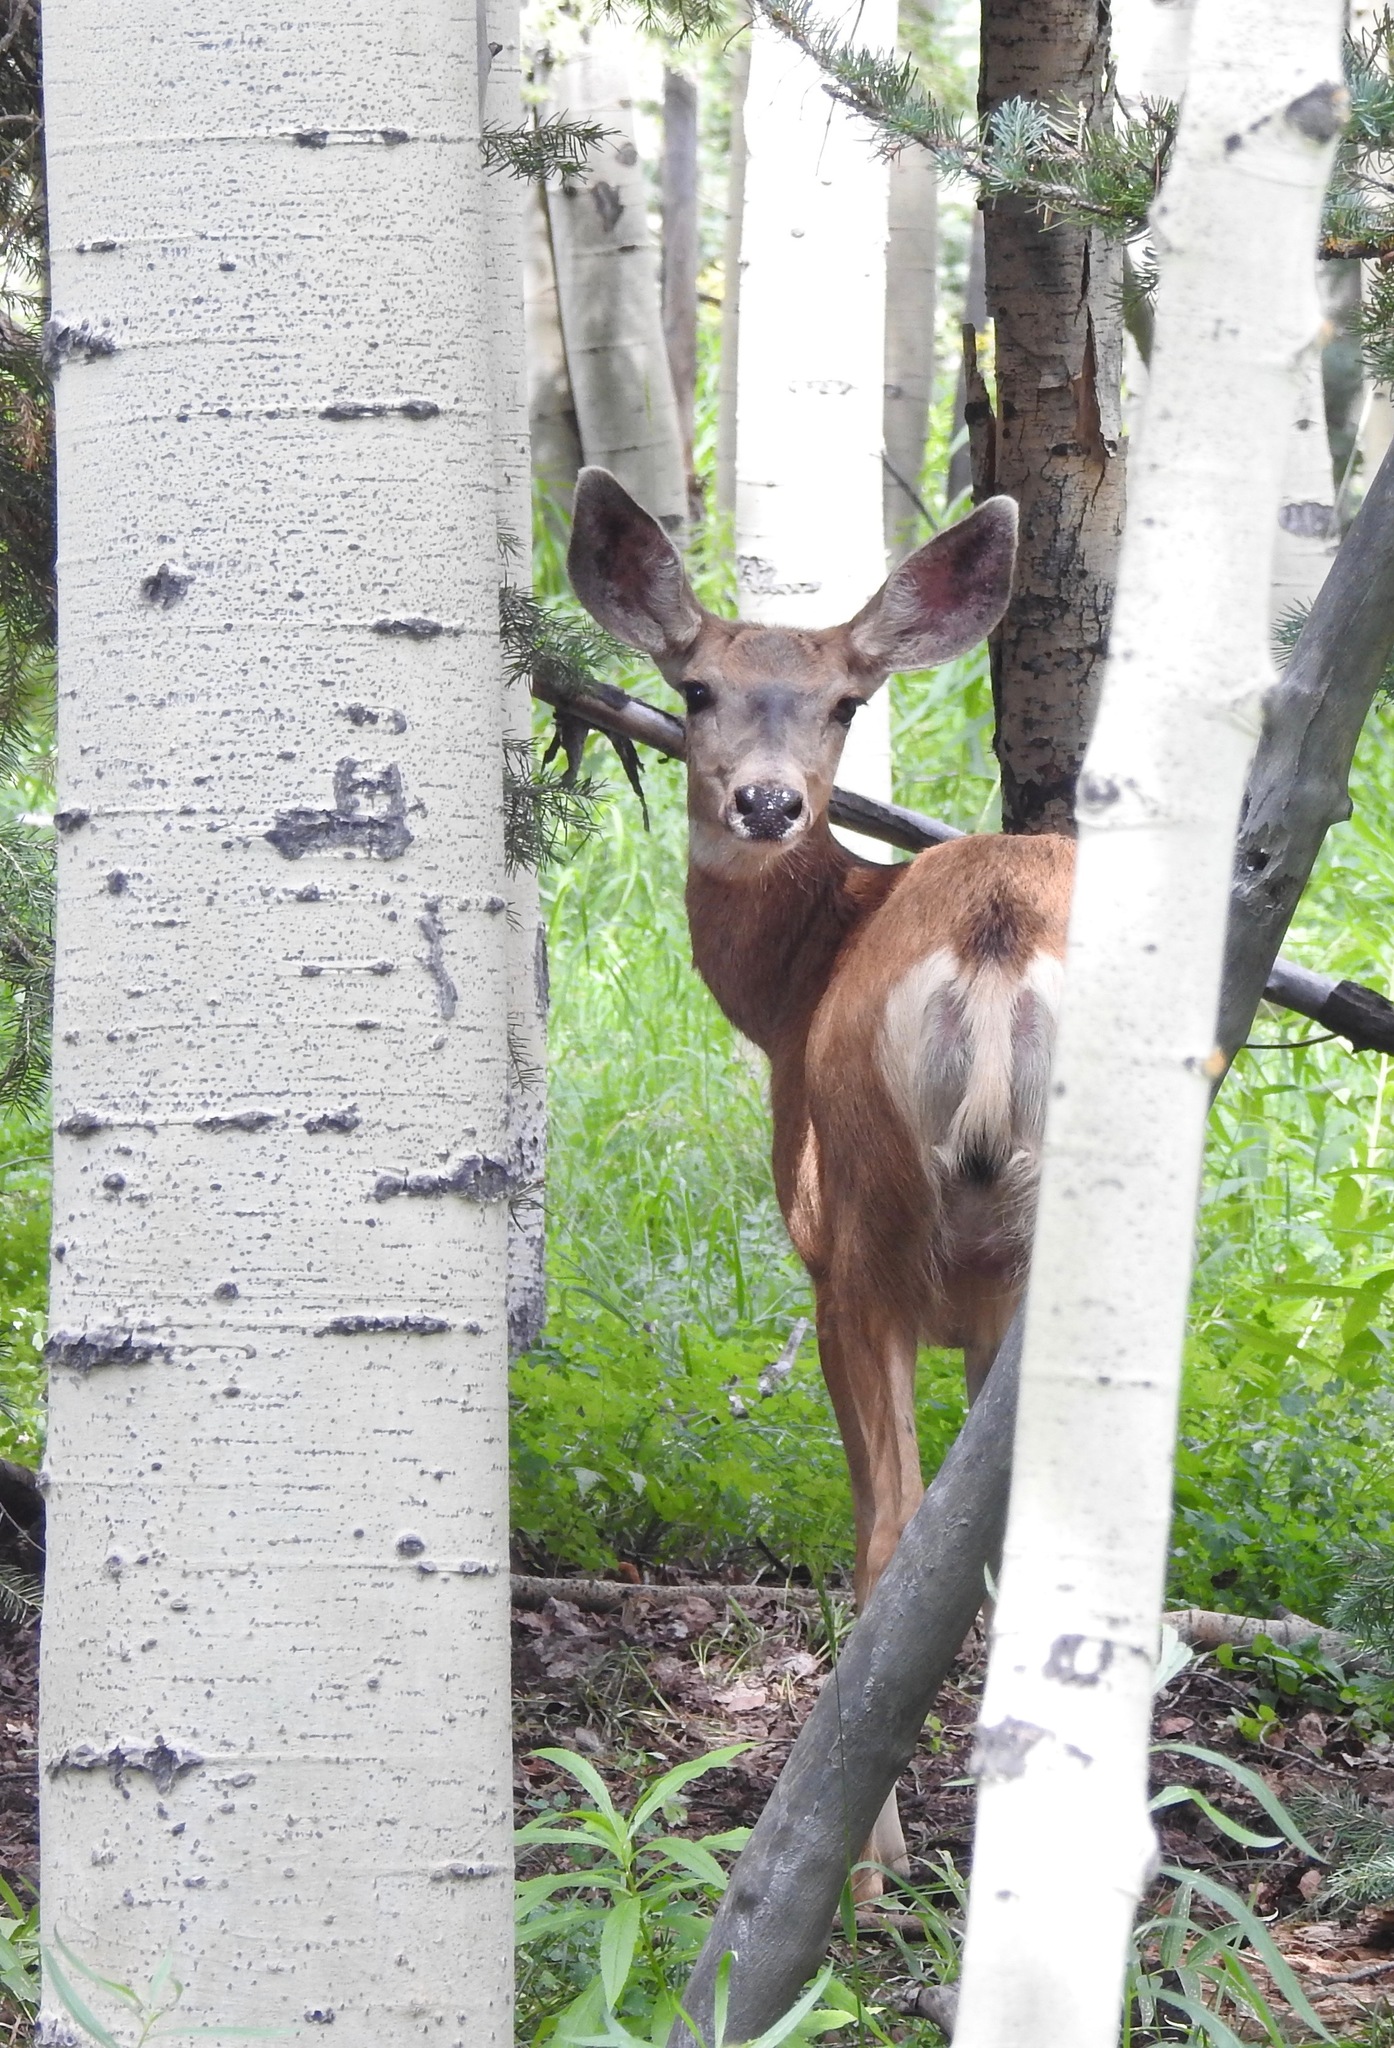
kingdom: Animalia
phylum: Chordata
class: Mammalia
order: Artiodactyla
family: Cervidae
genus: Odocoileus
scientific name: Odocoileus hemionus
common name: Mule deer
